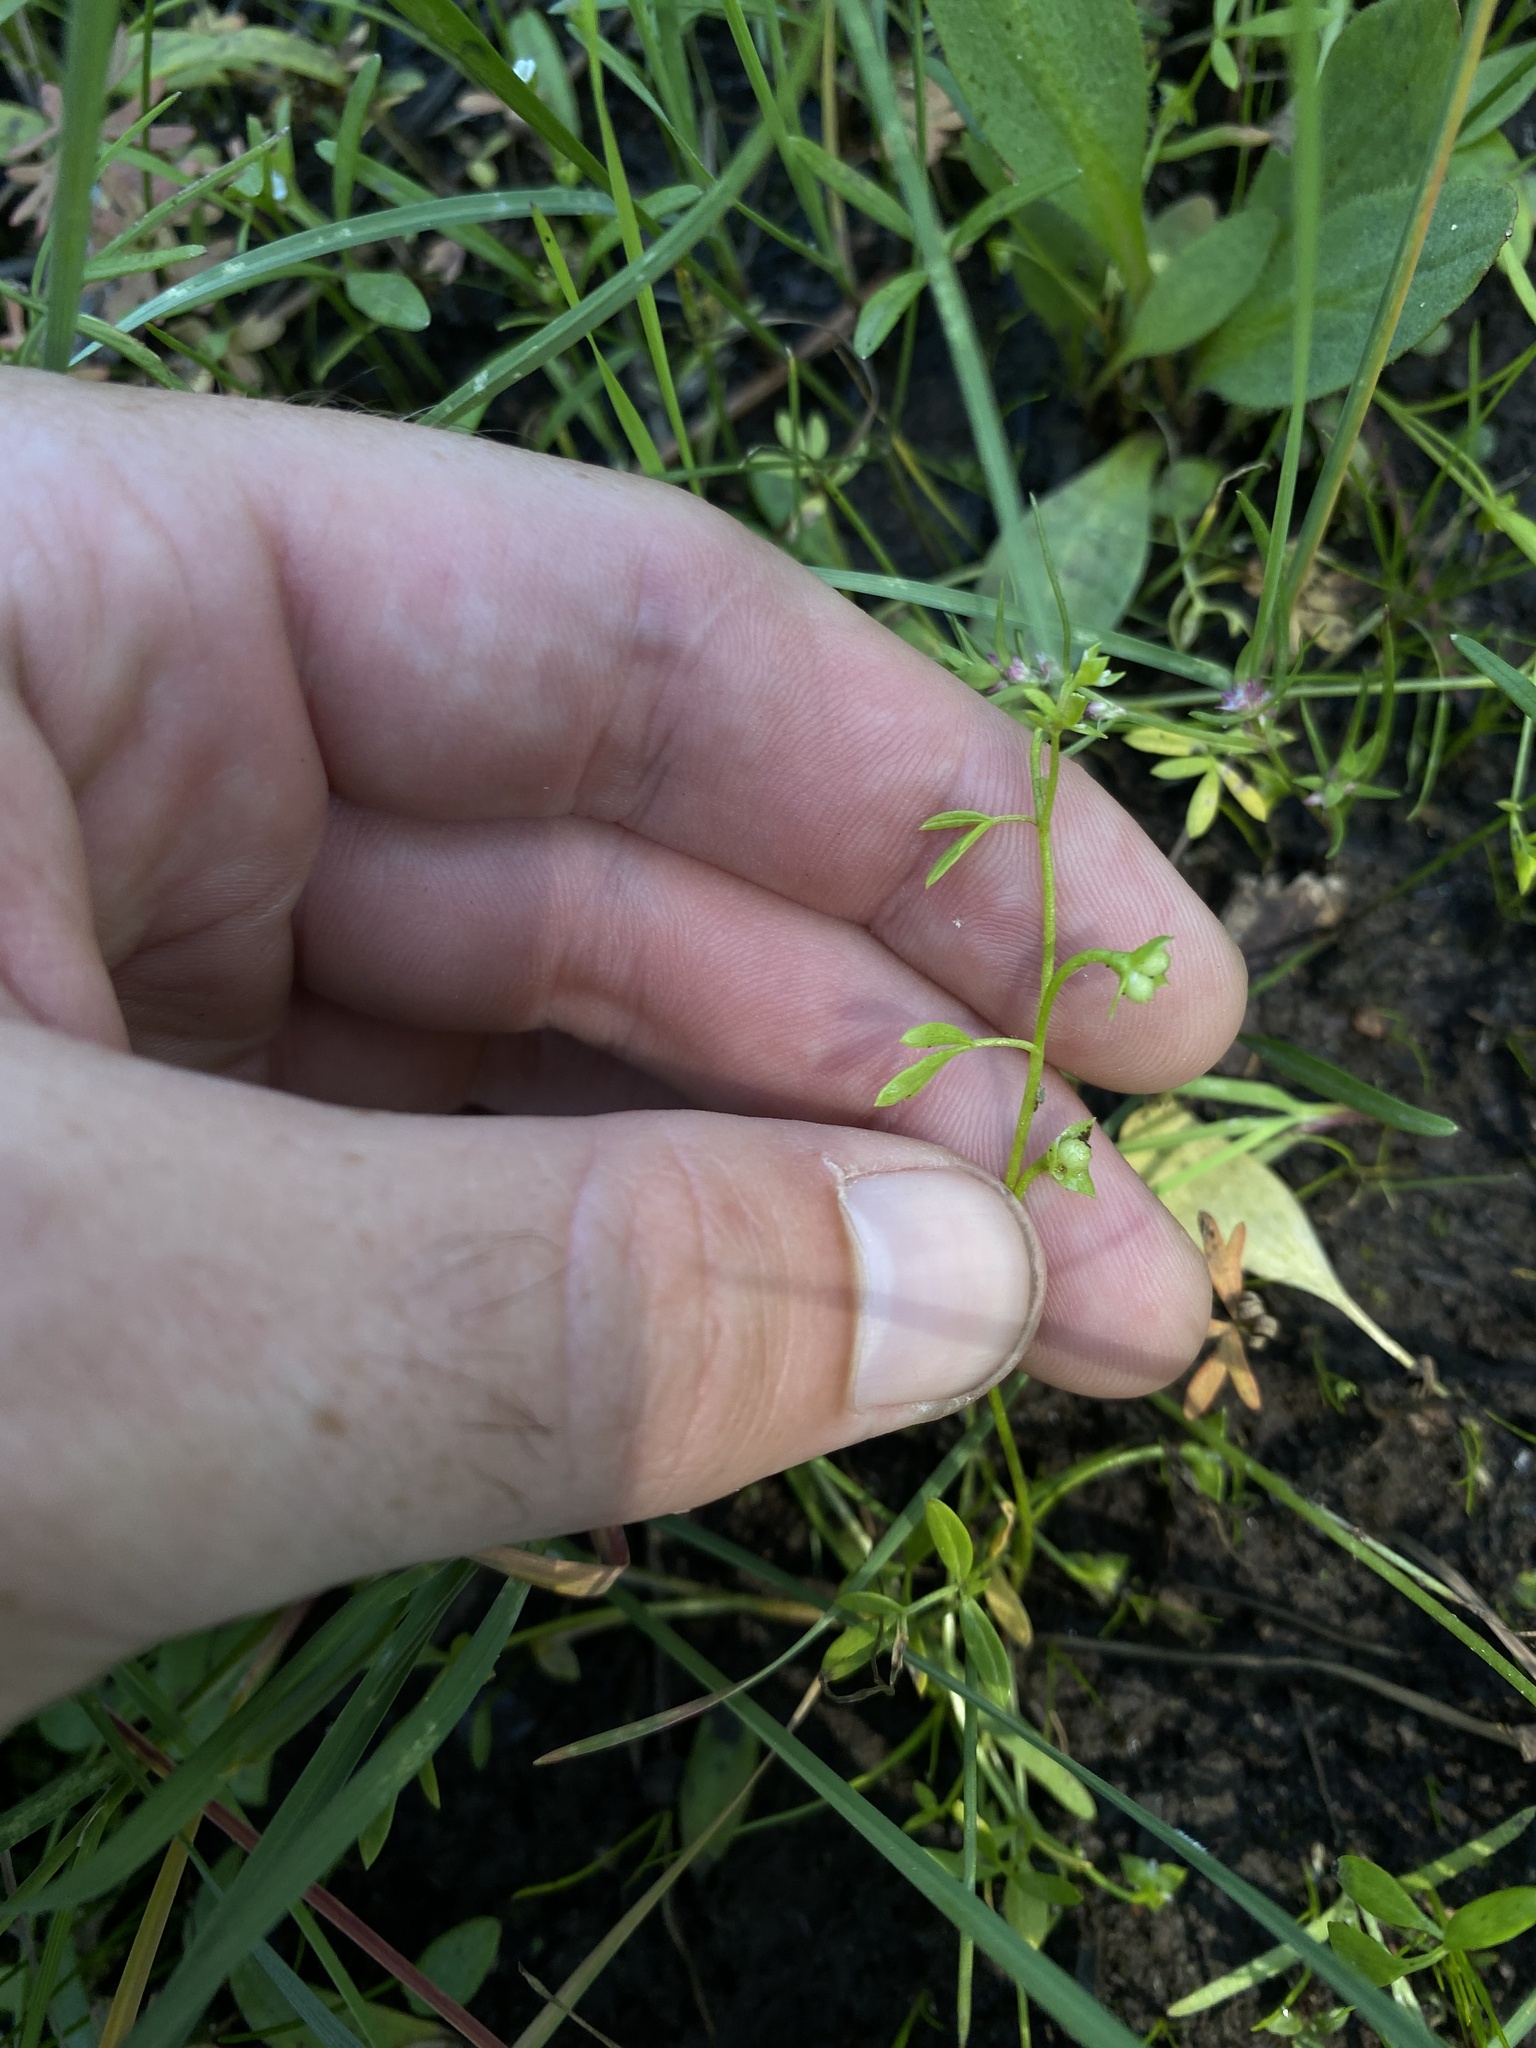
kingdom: Plantae
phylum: Tracheophyta
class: Magnoliopsida
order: Brassicales
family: Limnanthaceae
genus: Floerkea
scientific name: Floerkea proserpinacoides
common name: False mermaid
